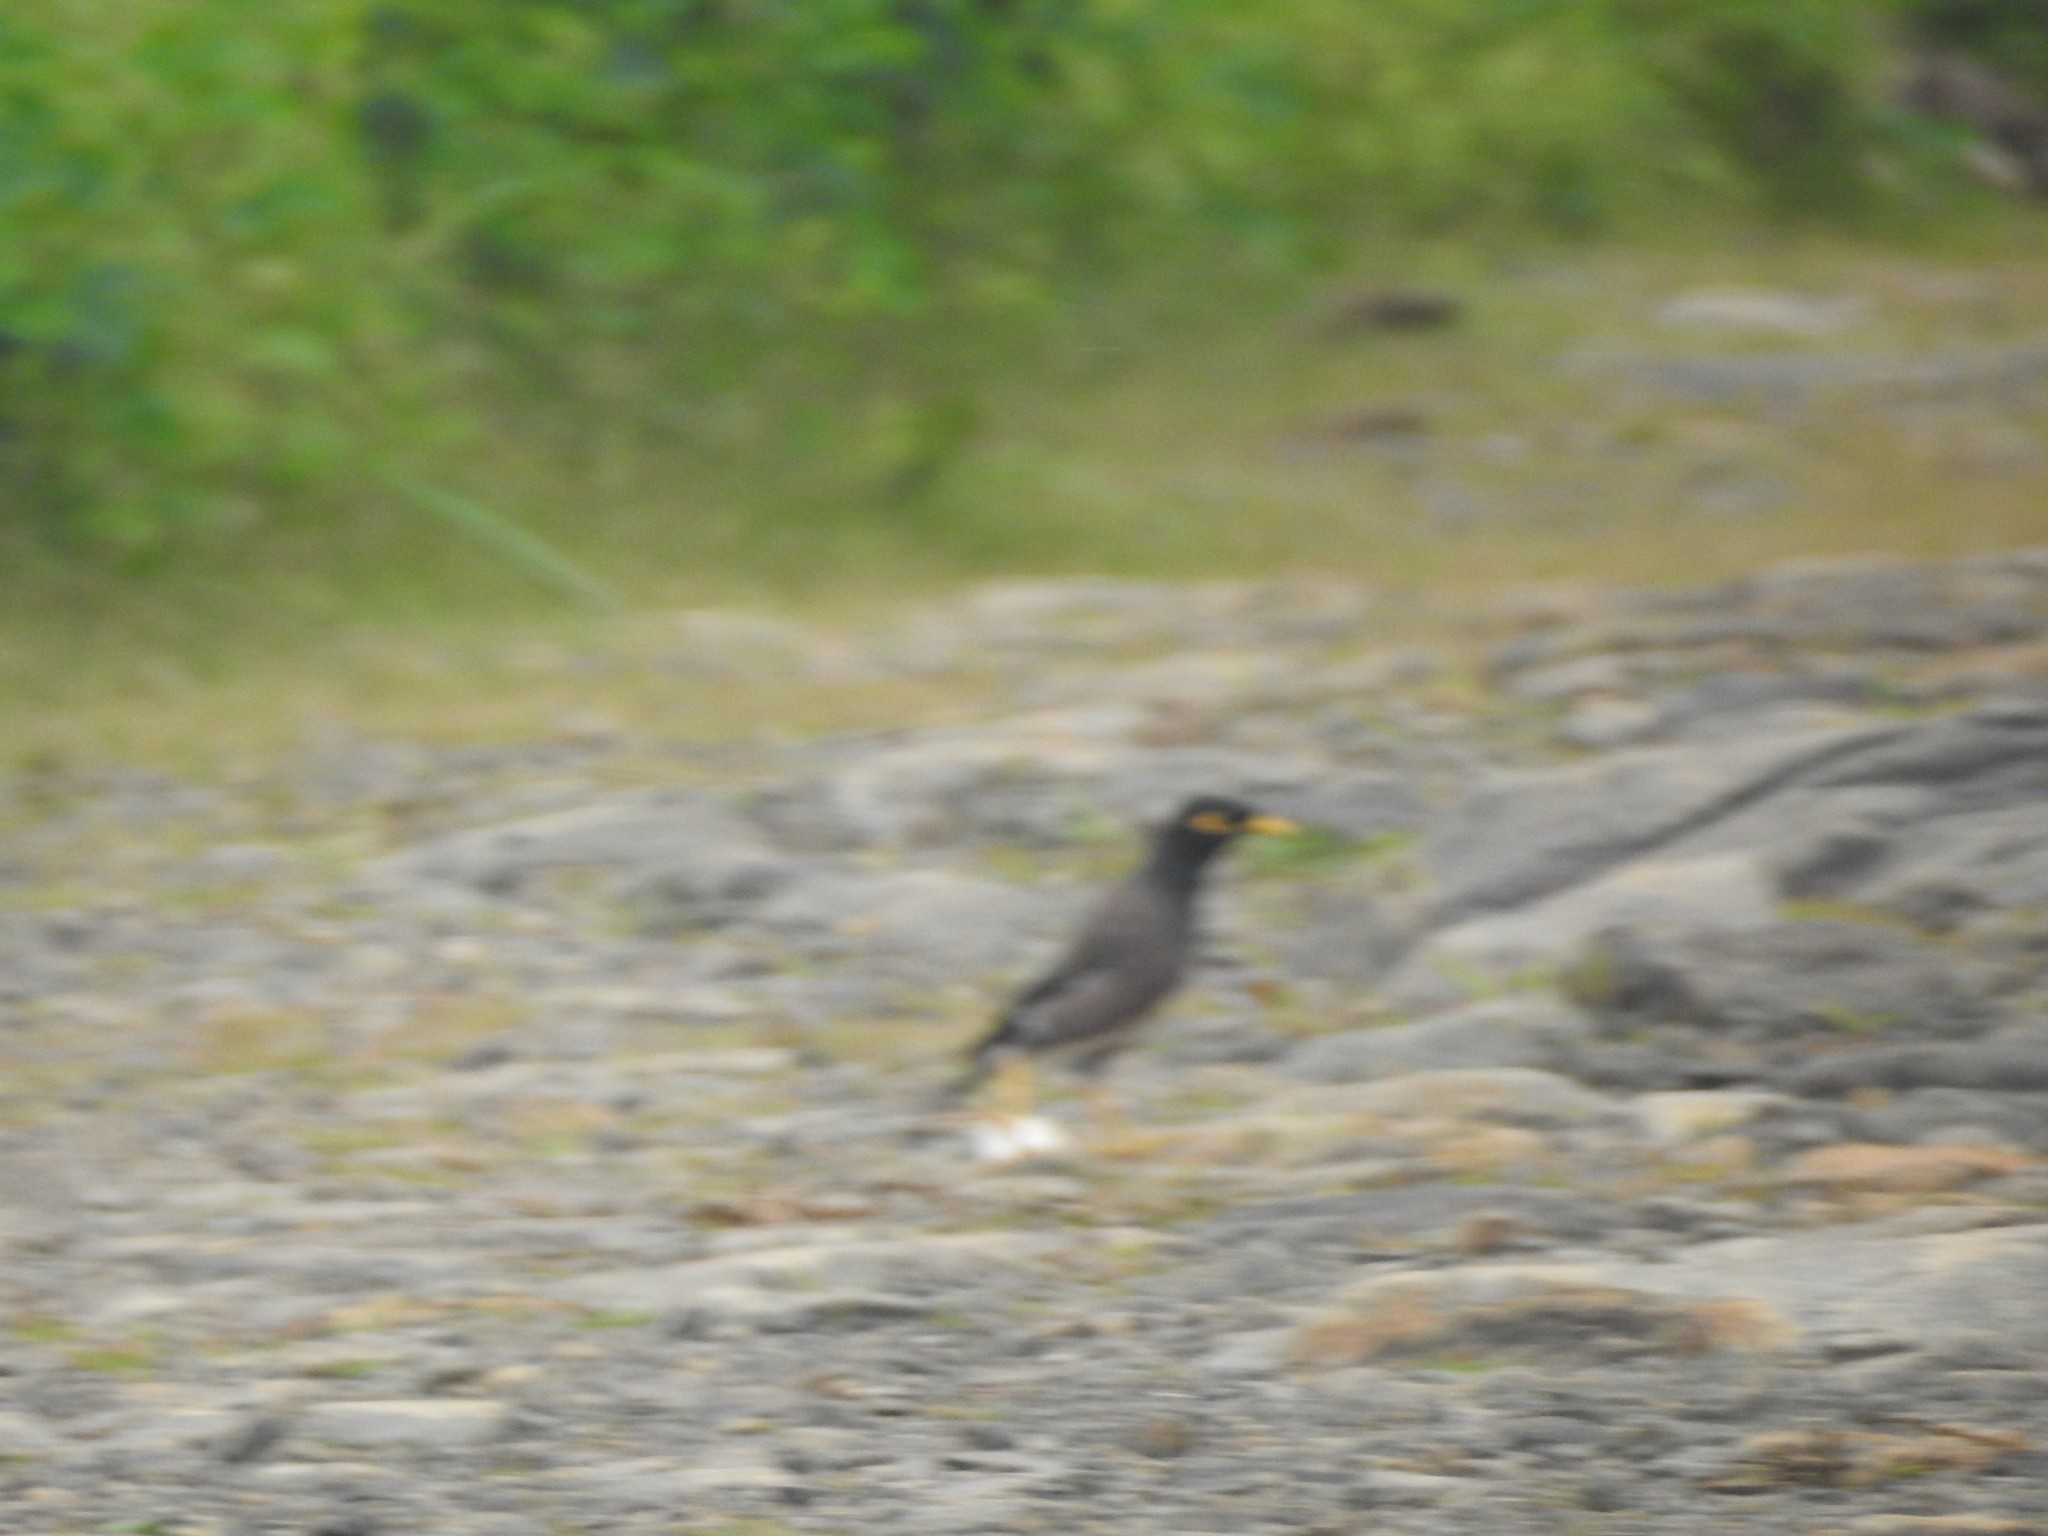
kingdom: Animalia
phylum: Chordata
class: Aves
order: Passeriformes
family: Sturnidae
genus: Acridotheres
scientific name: Acridotheres tristis
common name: Common myna
